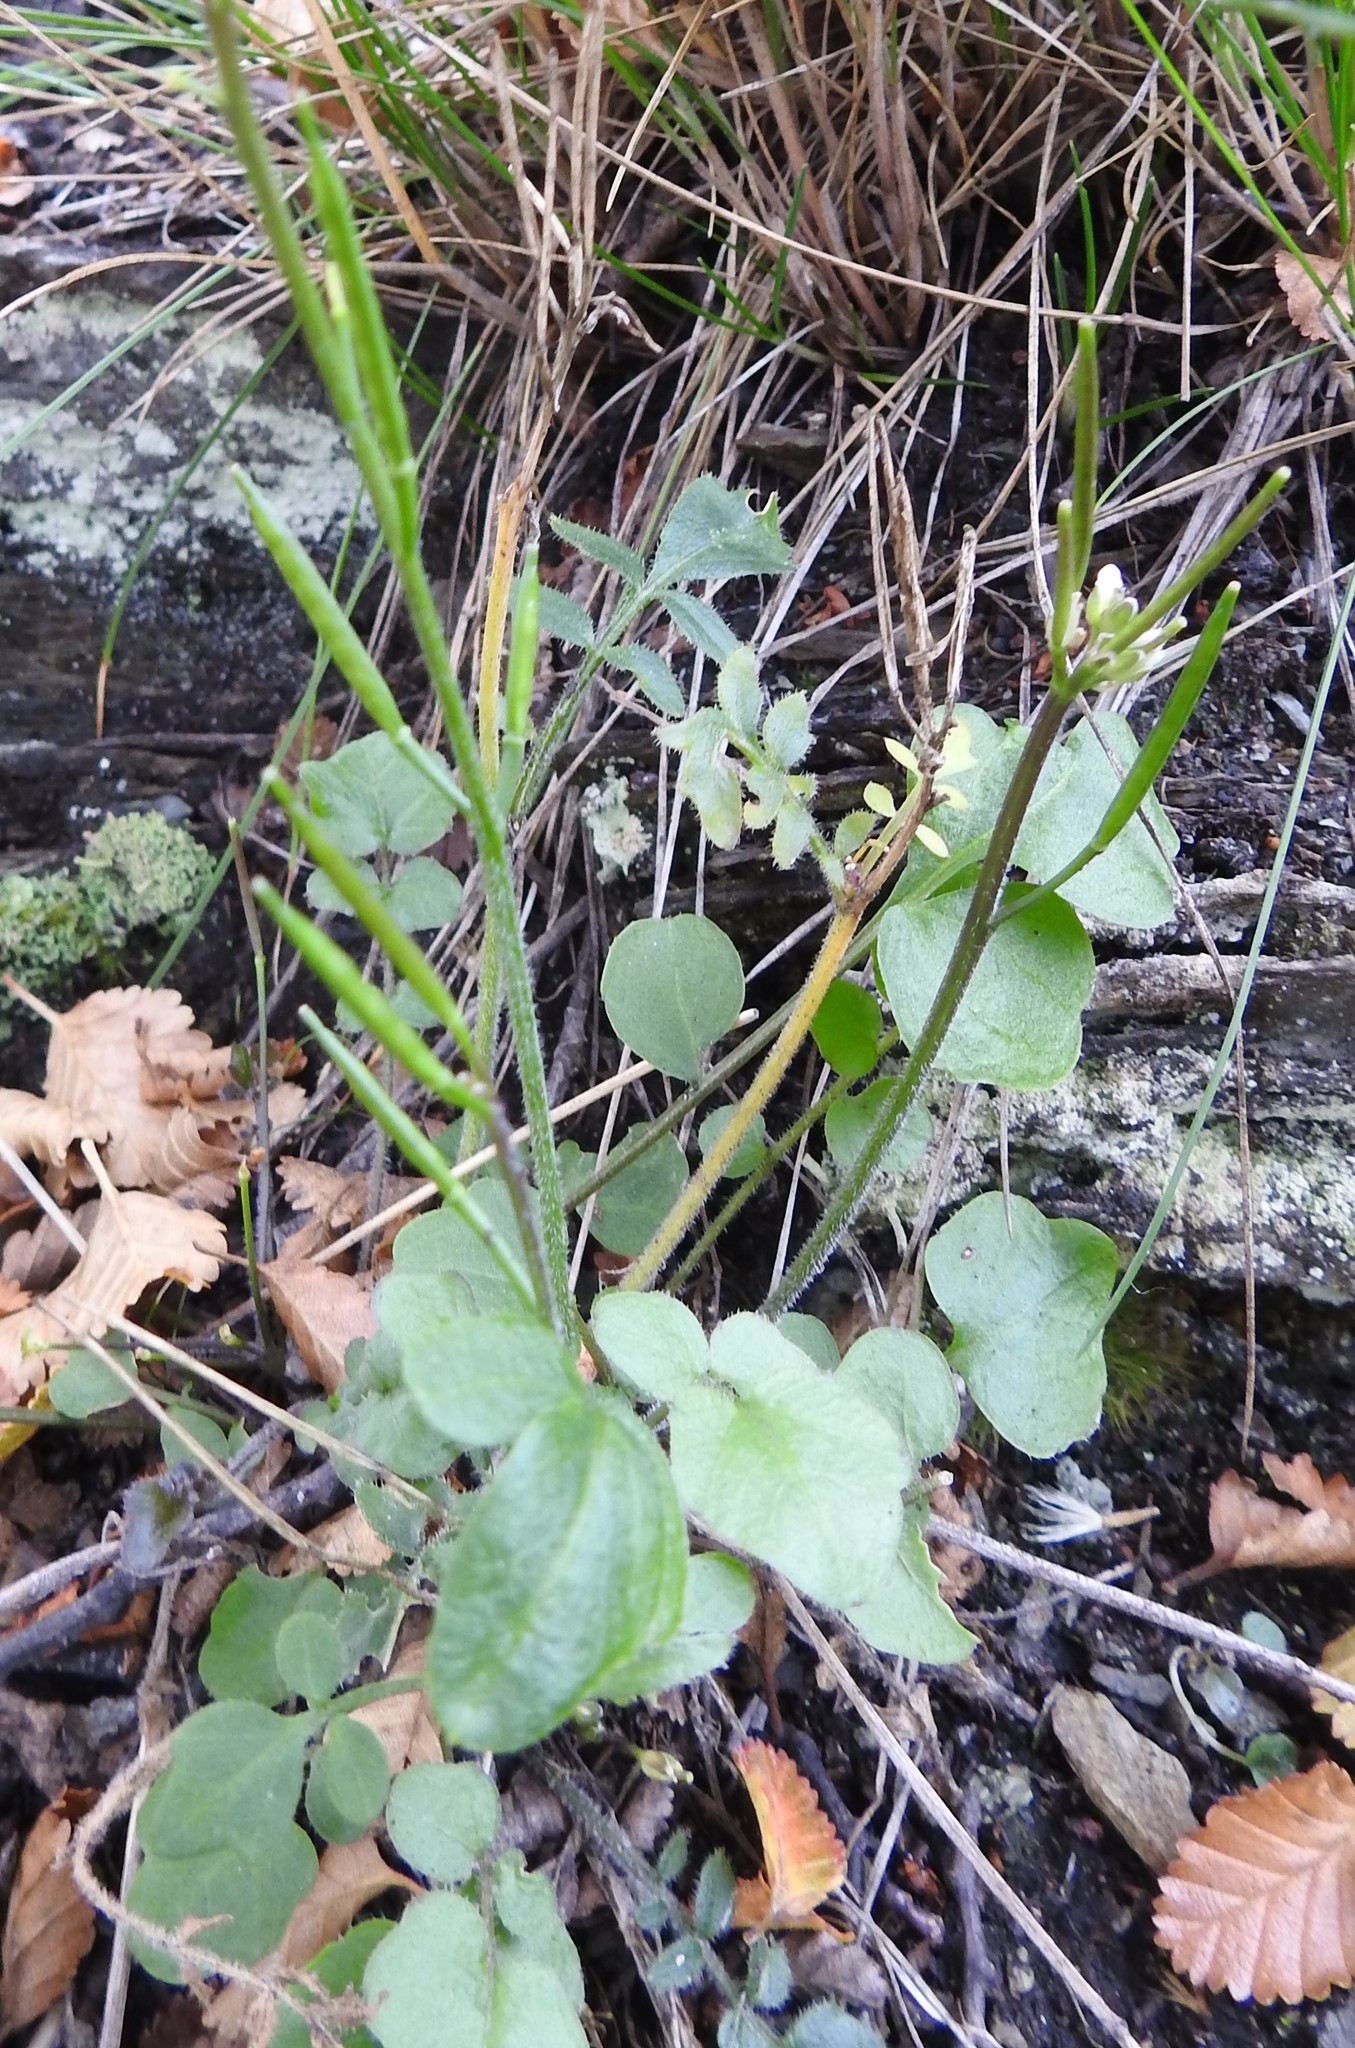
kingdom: Plantae
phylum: Tracheophyta
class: Magnoliopsida
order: Brassicales
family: Brassicaceae
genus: Cardamine
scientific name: Cardamine glacialis
